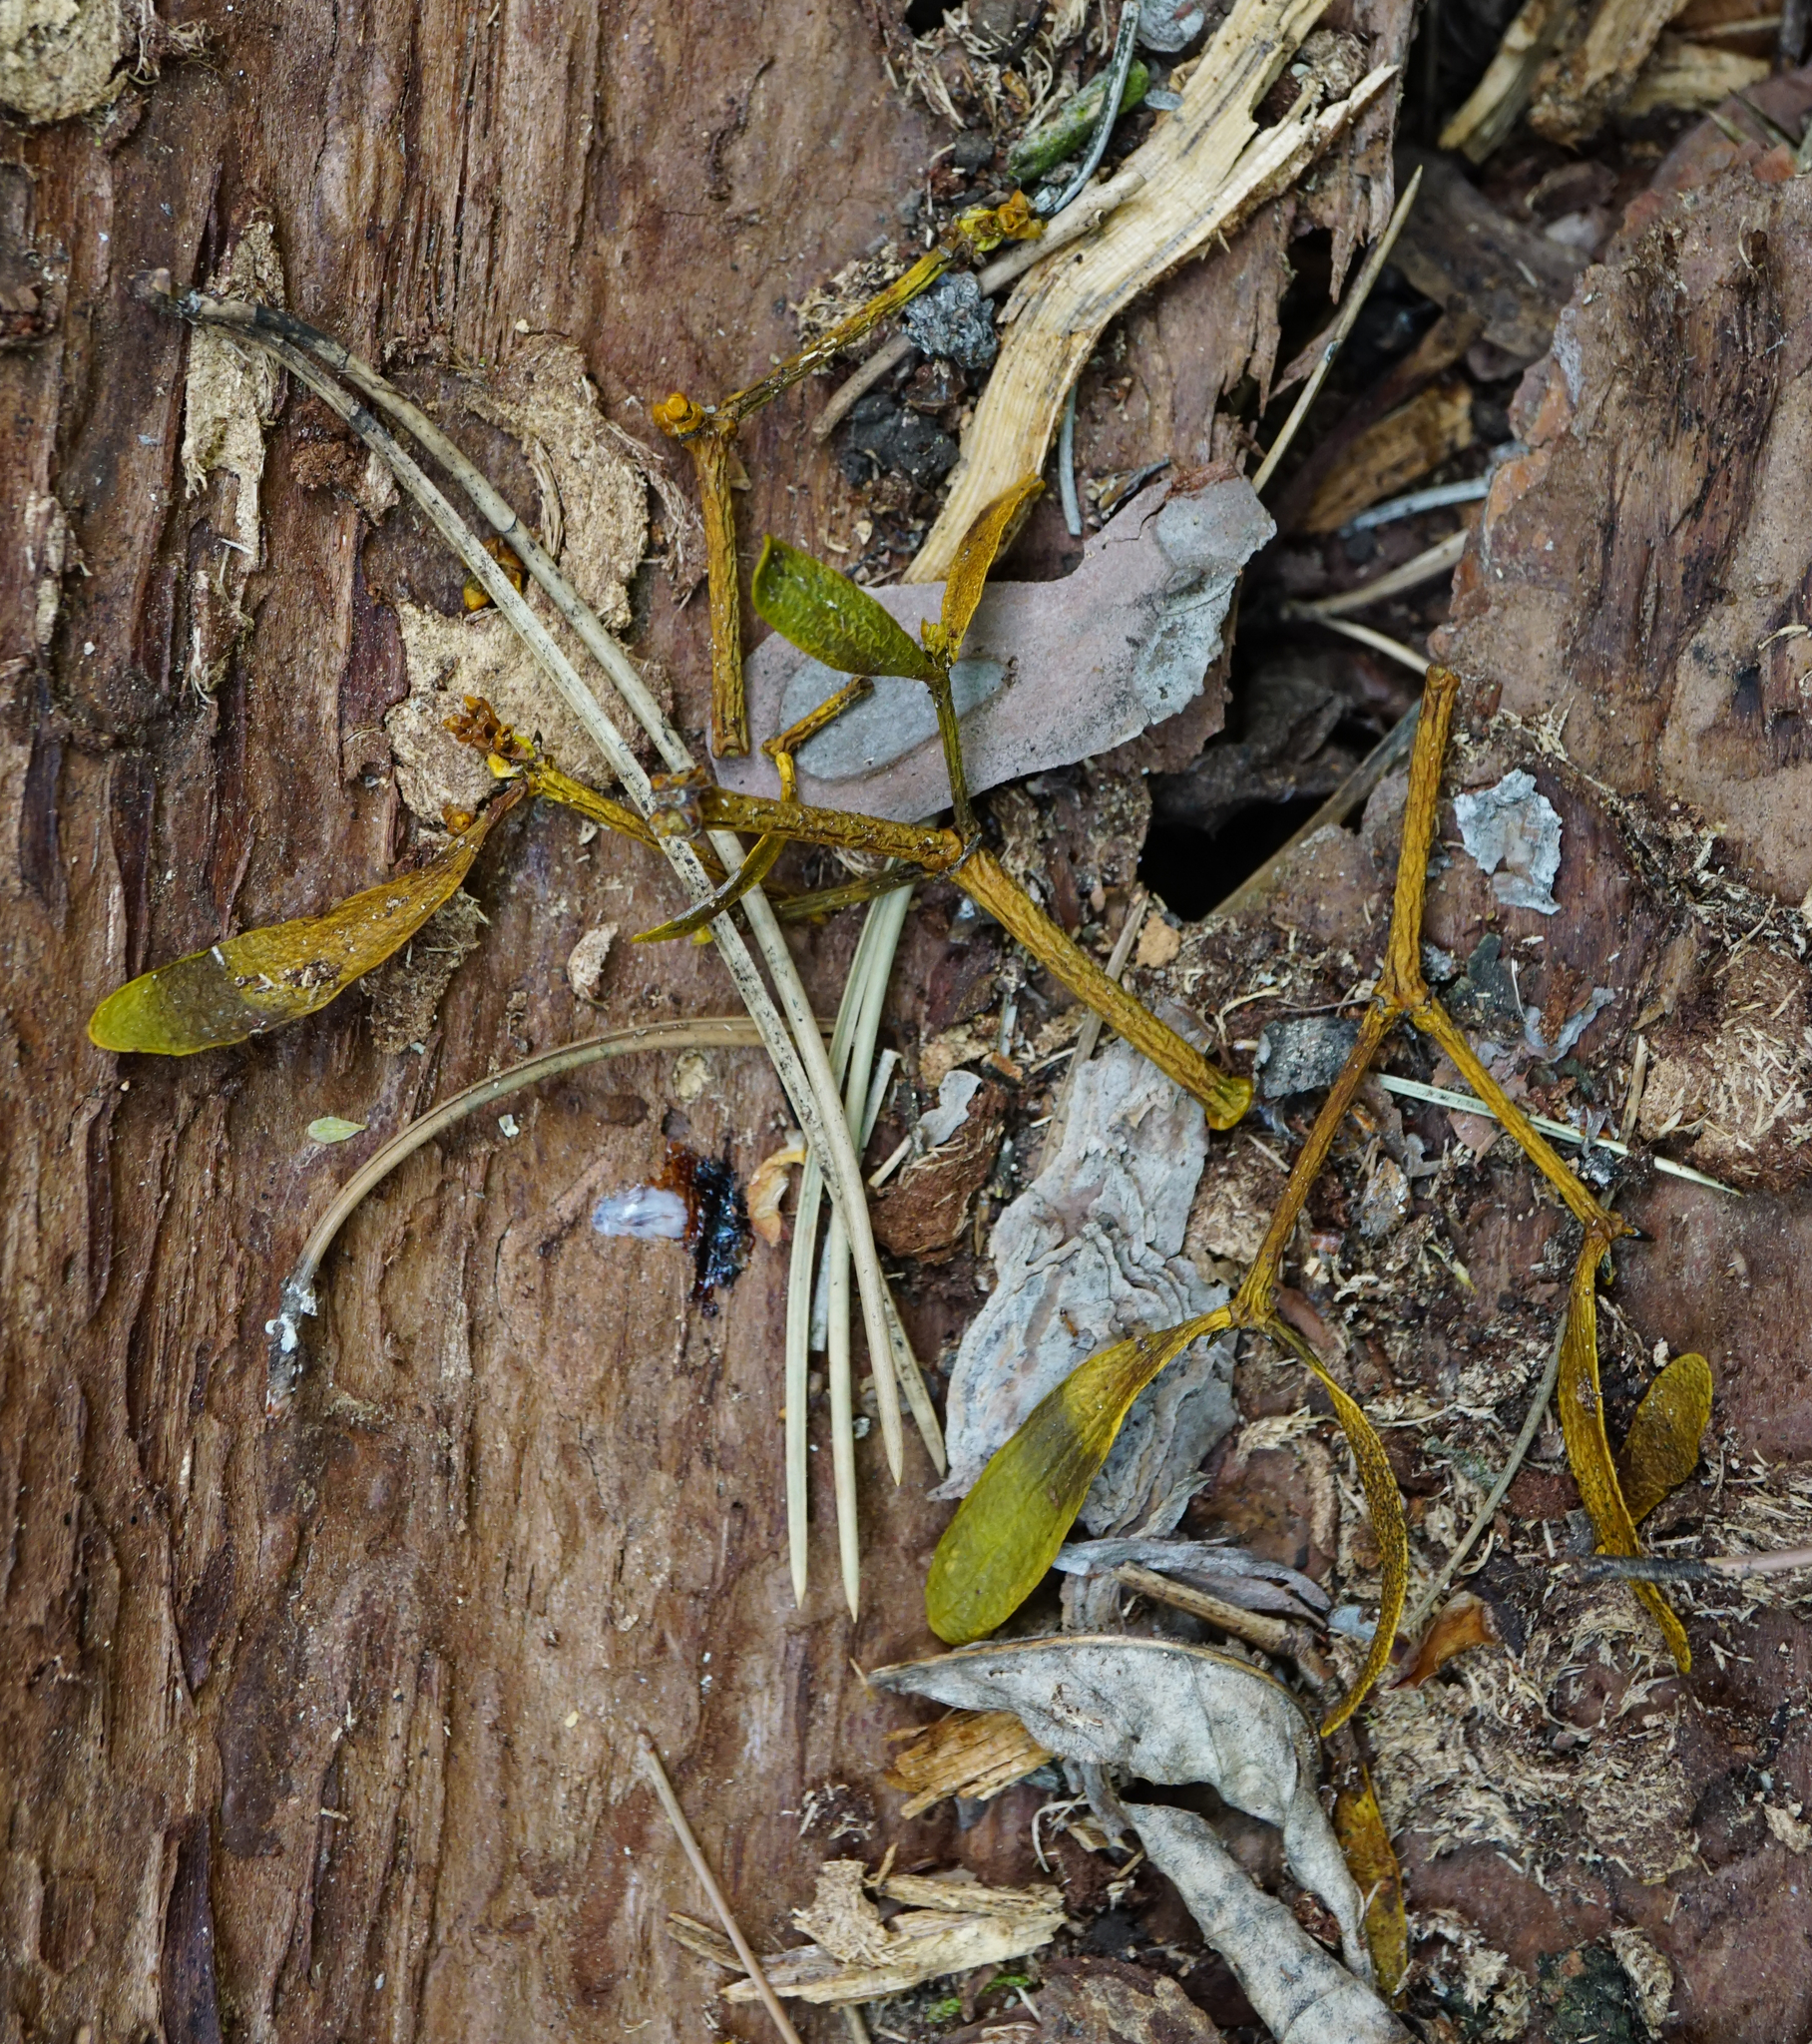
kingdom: Plantae
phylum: Tracheophyta
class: Magnoliopsida
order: Santalales
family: Viscaceae
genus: Viscum
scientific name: Viscum album
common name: Mistletoe
